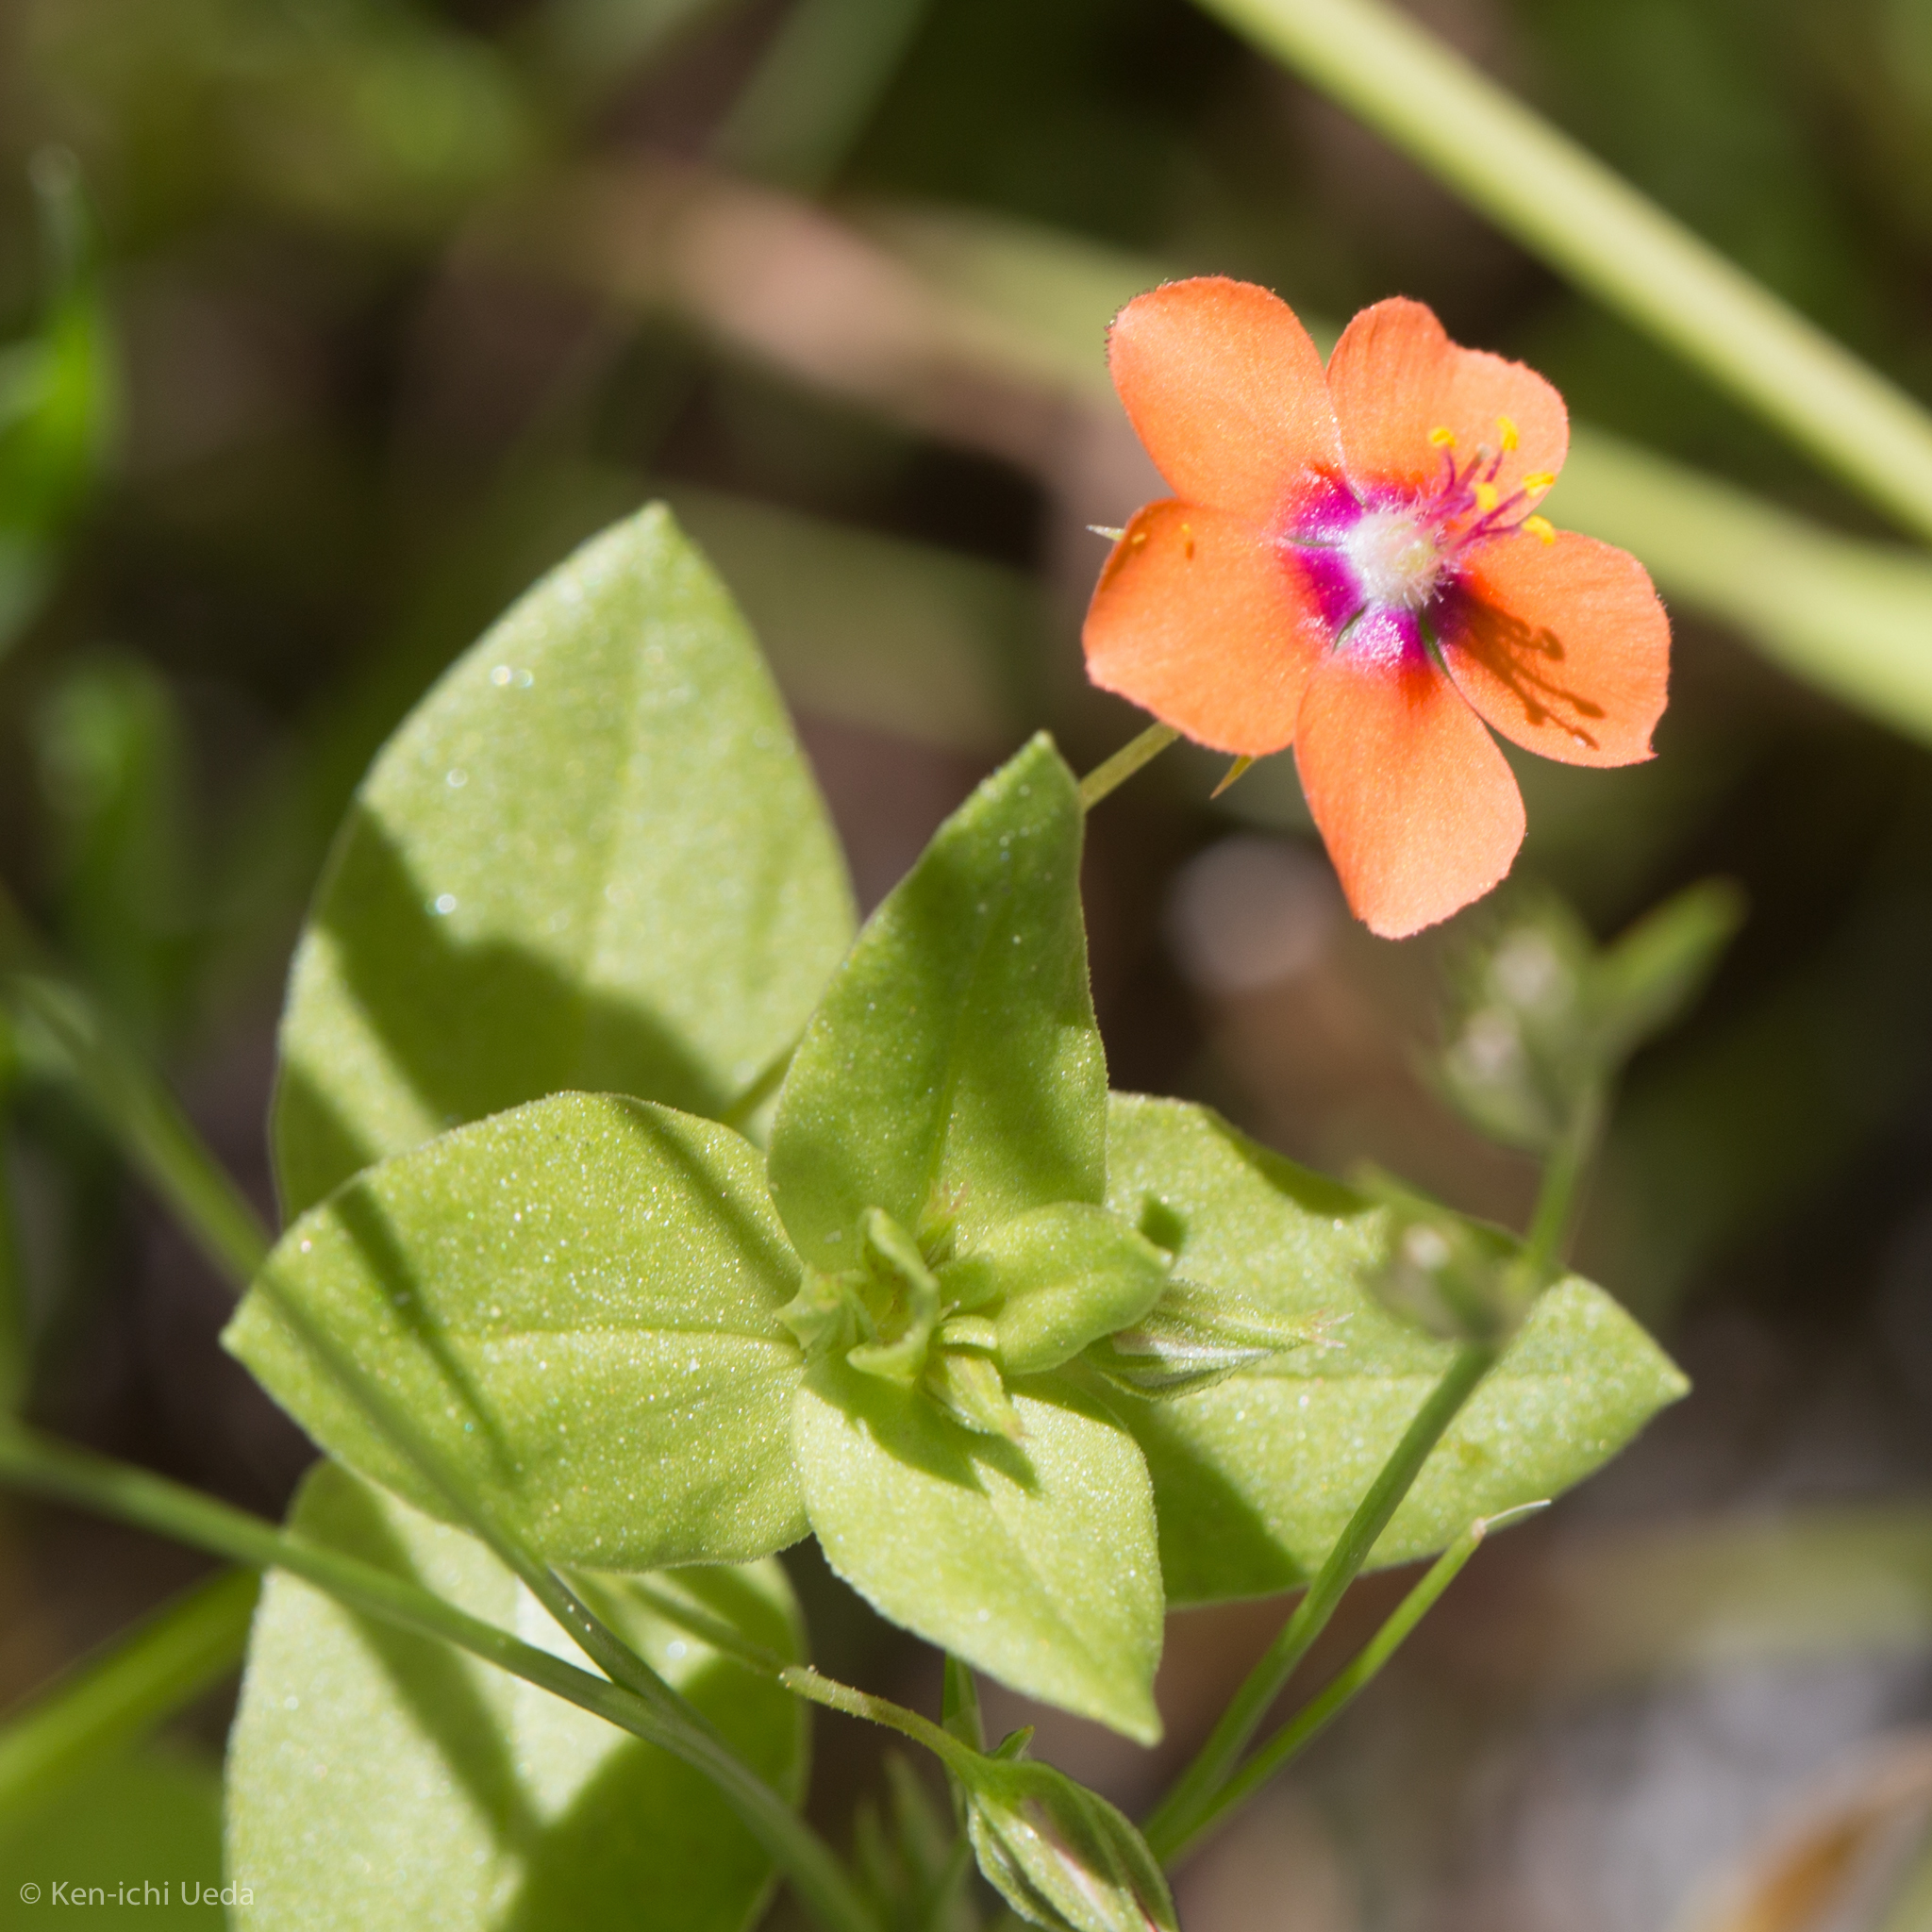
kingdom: Plantae
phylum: Tracheophyta
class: Magnoliopsida
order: Ericales
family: Primulaceae
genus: Lysimachia
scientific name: Lysimachia arvensis
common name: Scarlet pimpernel
